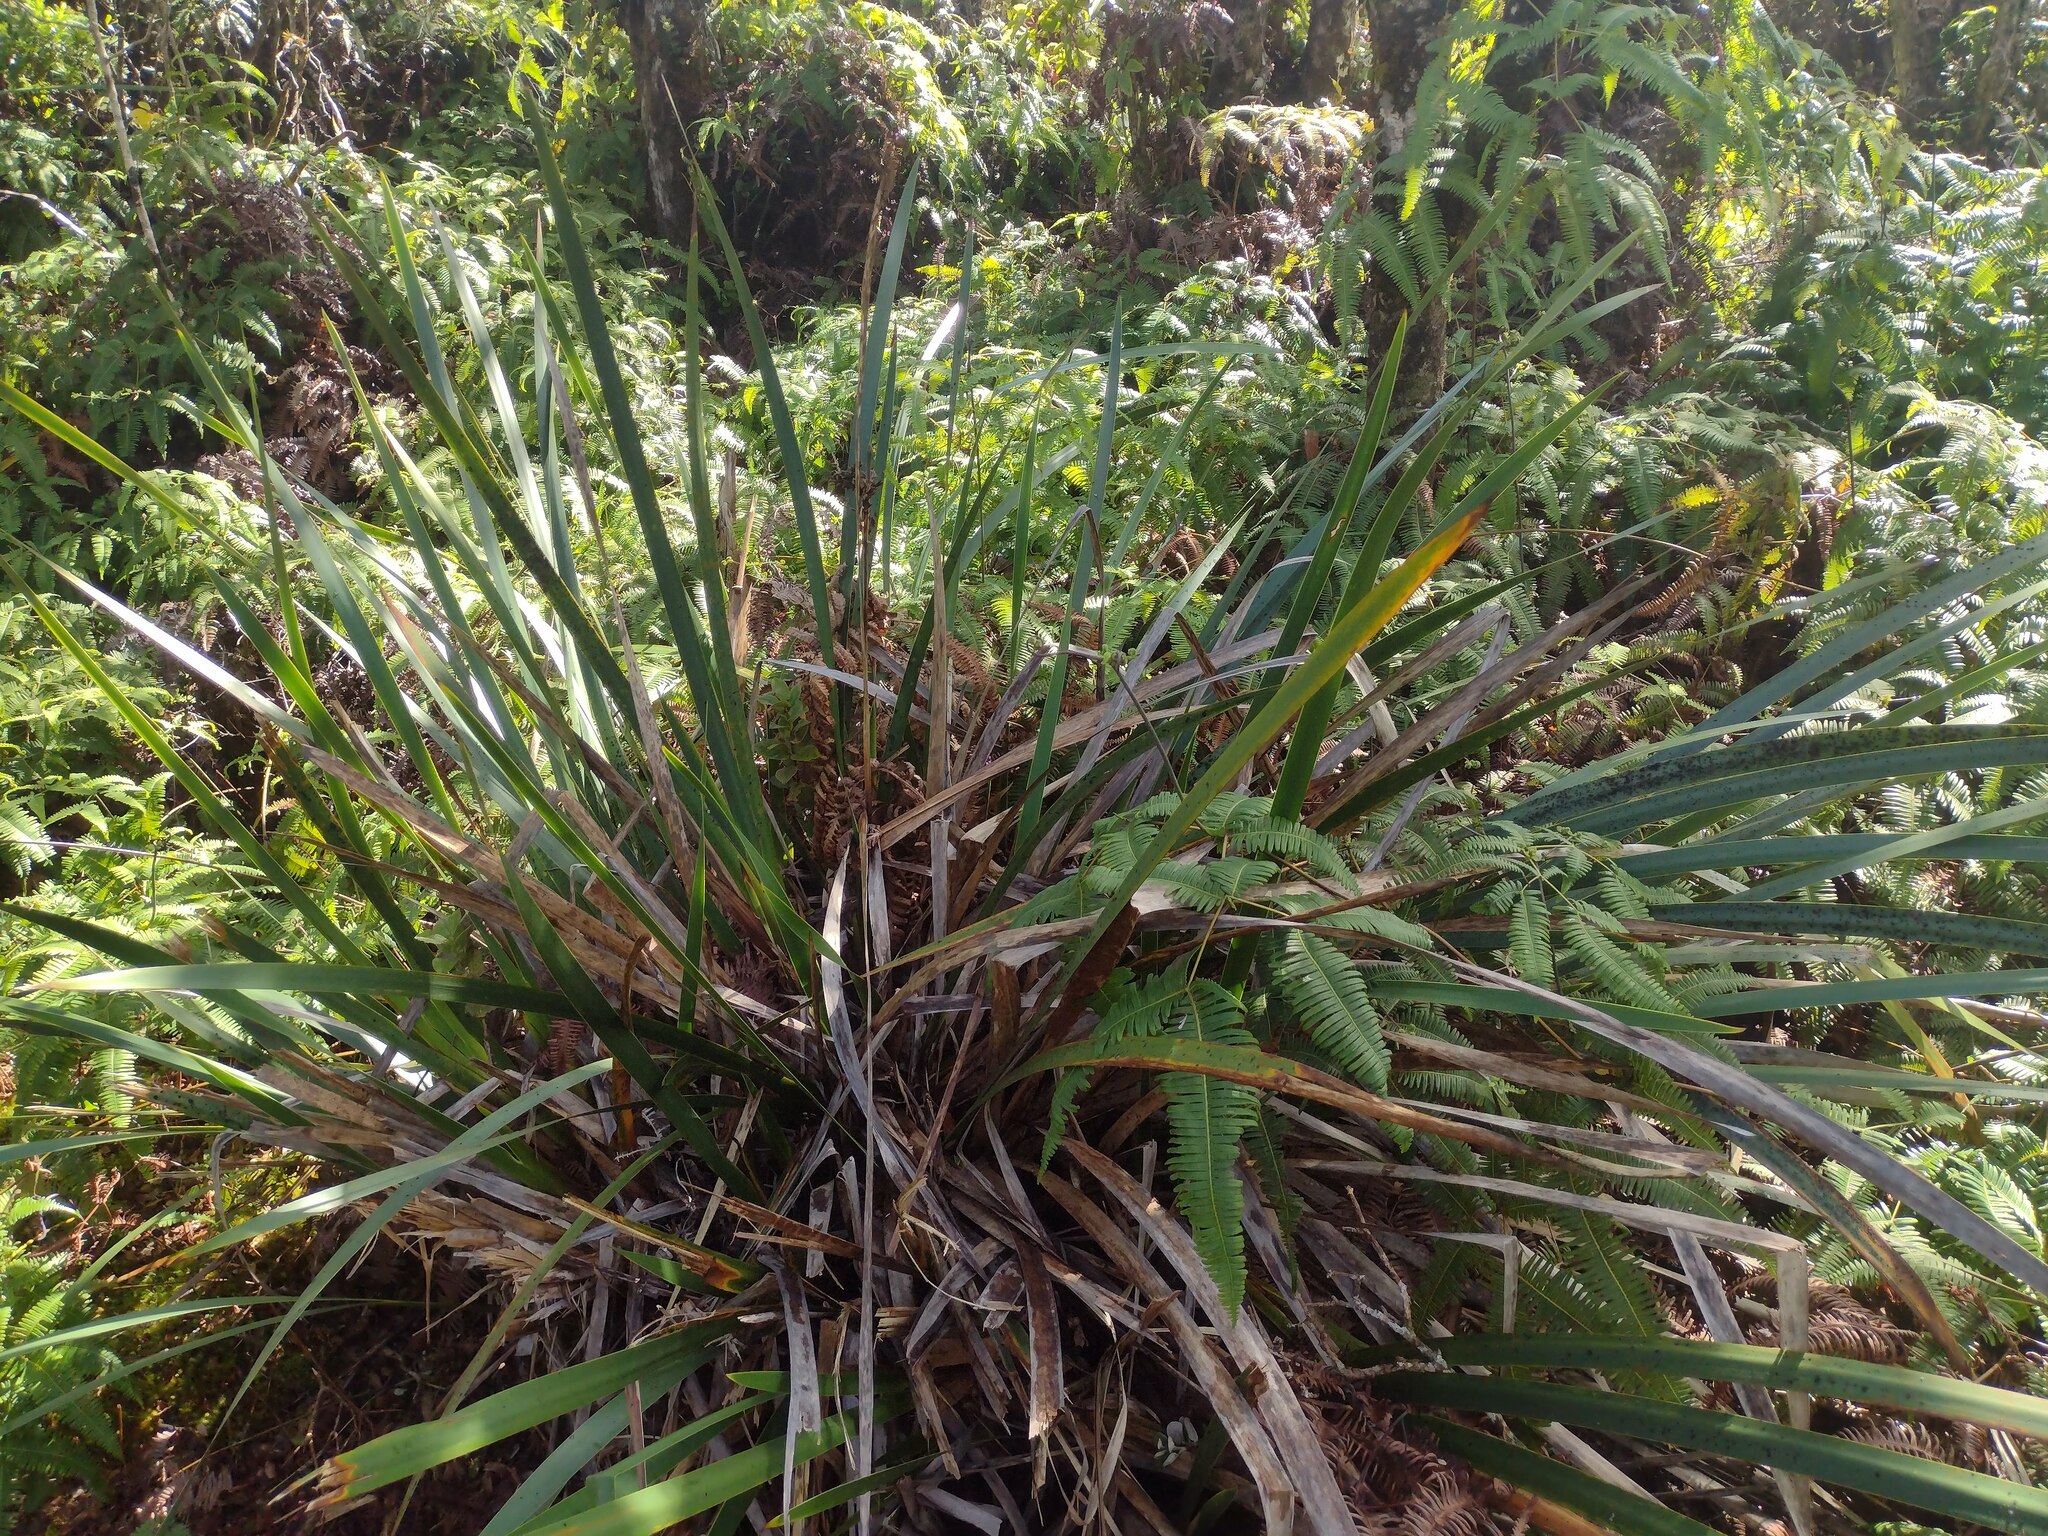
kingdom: Plantae
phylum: Tracheophyta
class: Liliopsida
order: Poales
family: Cyperaceae
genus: Machaerina
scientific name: Machaerina angustifolia
